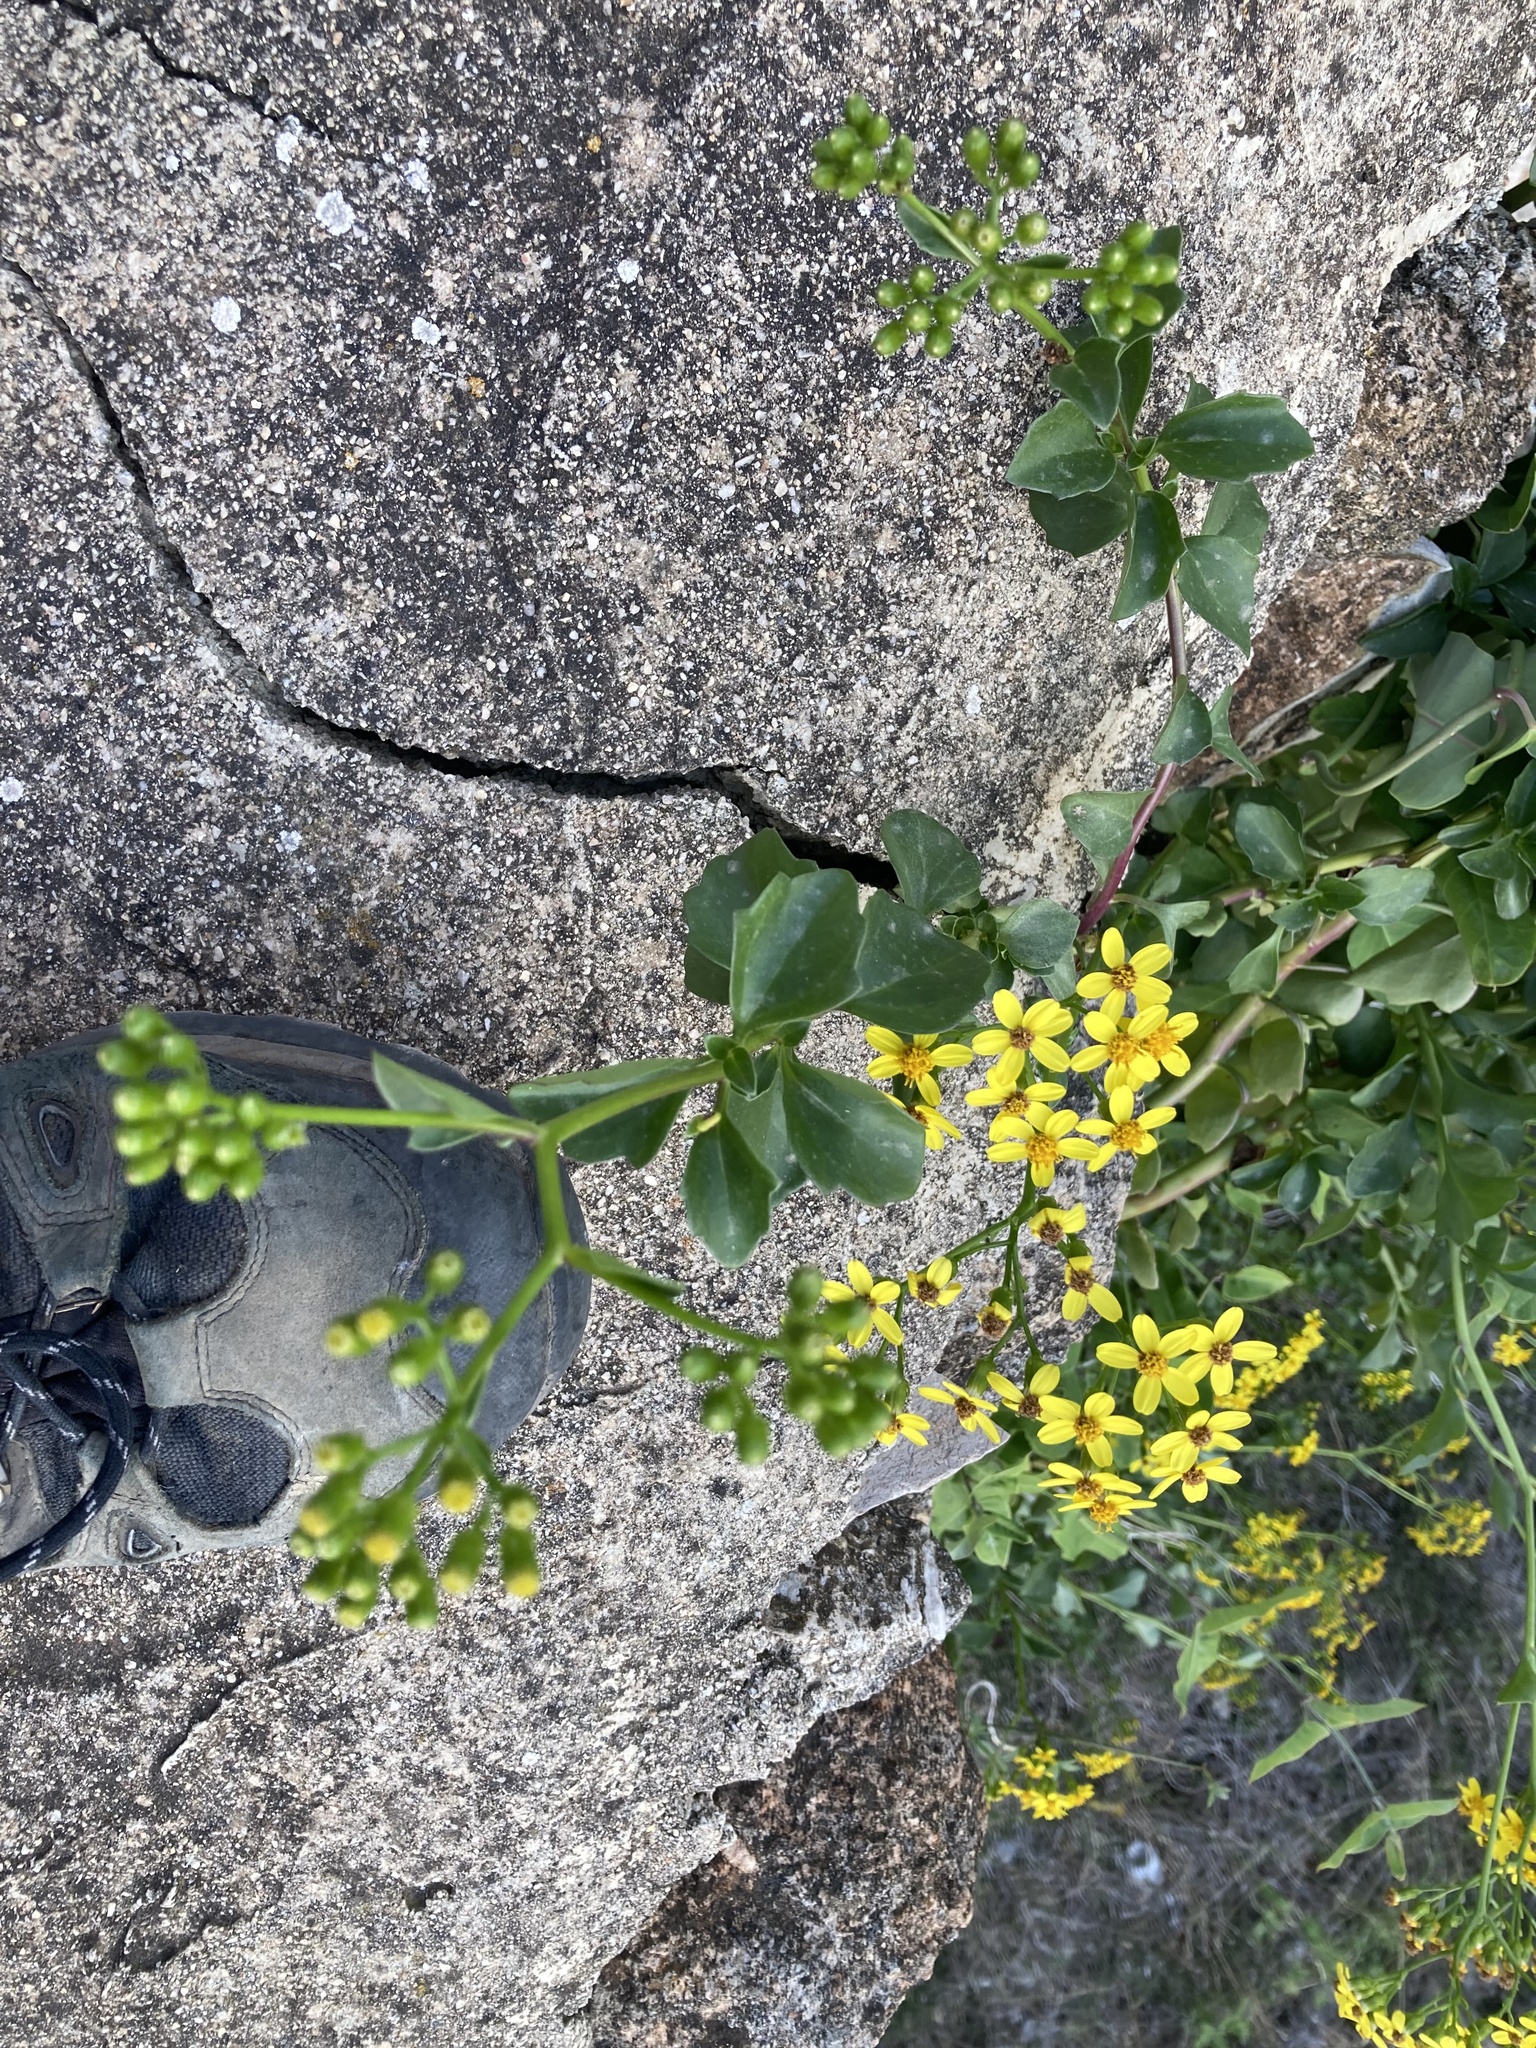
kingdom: Plantae
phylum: Tracheophyta
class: Magnoliopsida
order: Asterales
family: Asteraceae
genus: Senecio
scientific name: Senecio angulatus
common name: Climbing groundsel
